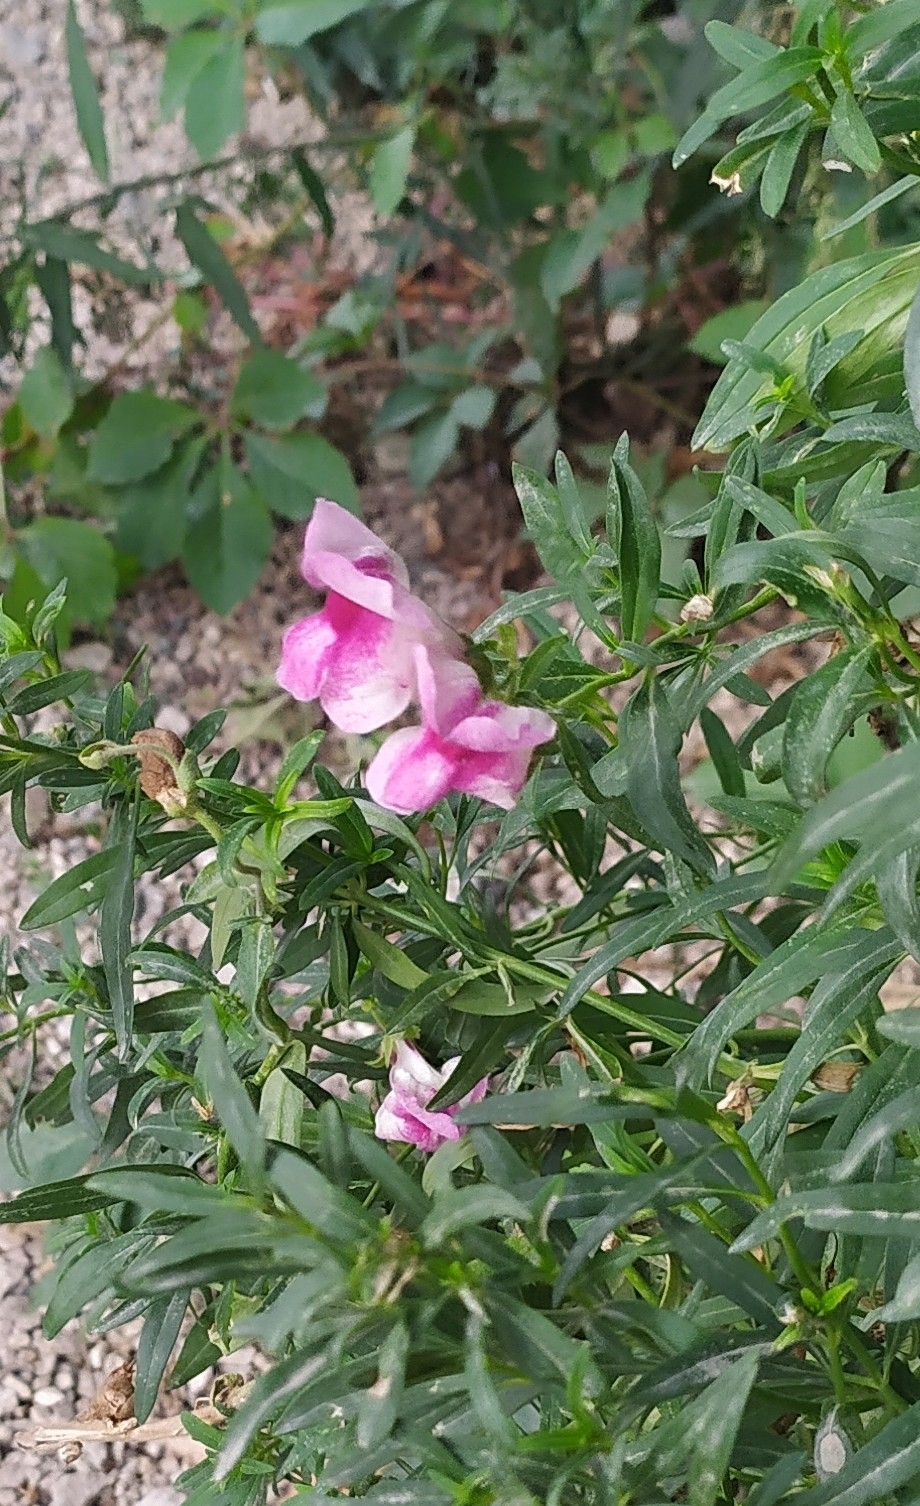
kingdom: Plantae
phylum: Tracheophyta
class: Magnoliopsida
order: Lamiales
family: Plantaginaceae
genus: Antirrhinum
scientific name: Antirrhinum majus
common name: Snapdragon
